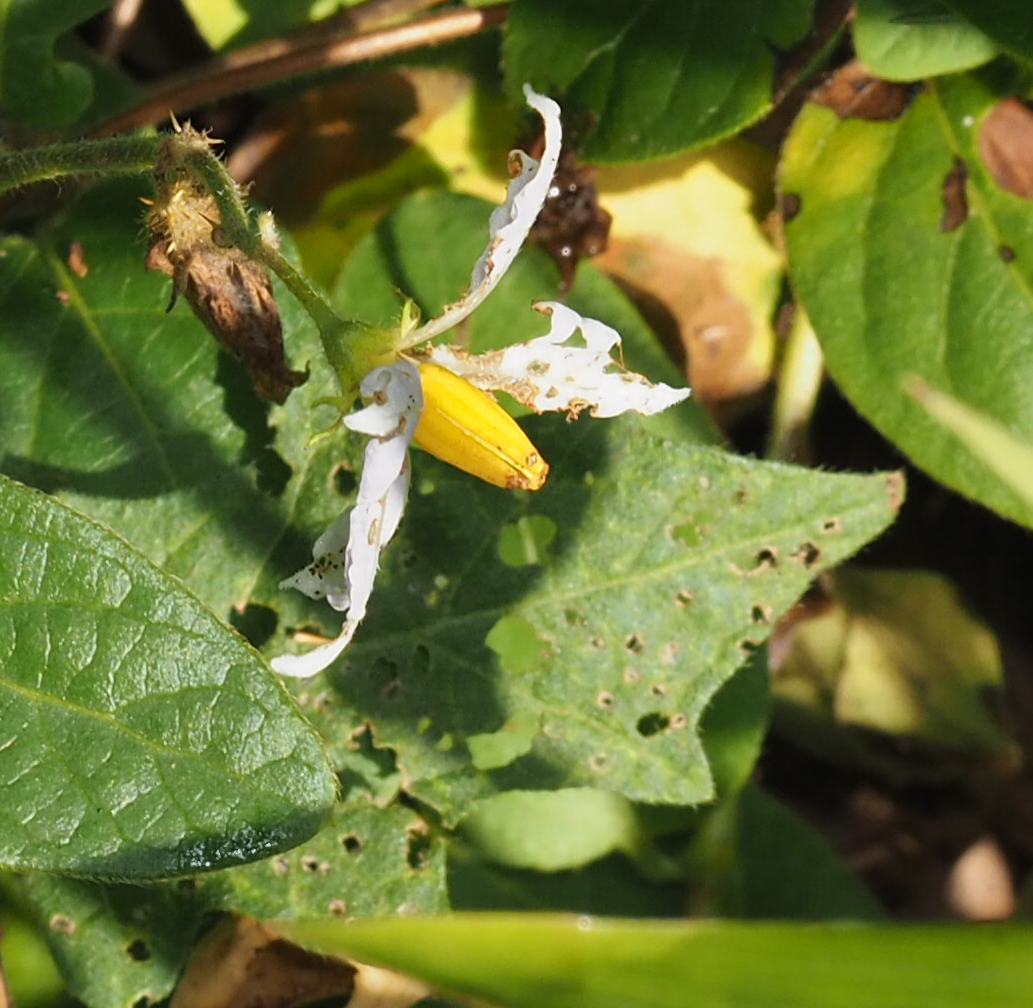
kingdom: Plantae
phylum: Tracheophyta
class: Magnoliopsida
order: Solanales
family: Solanaceae
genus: Solanum
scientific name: Solanum carolinense
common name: Horse-nettle
